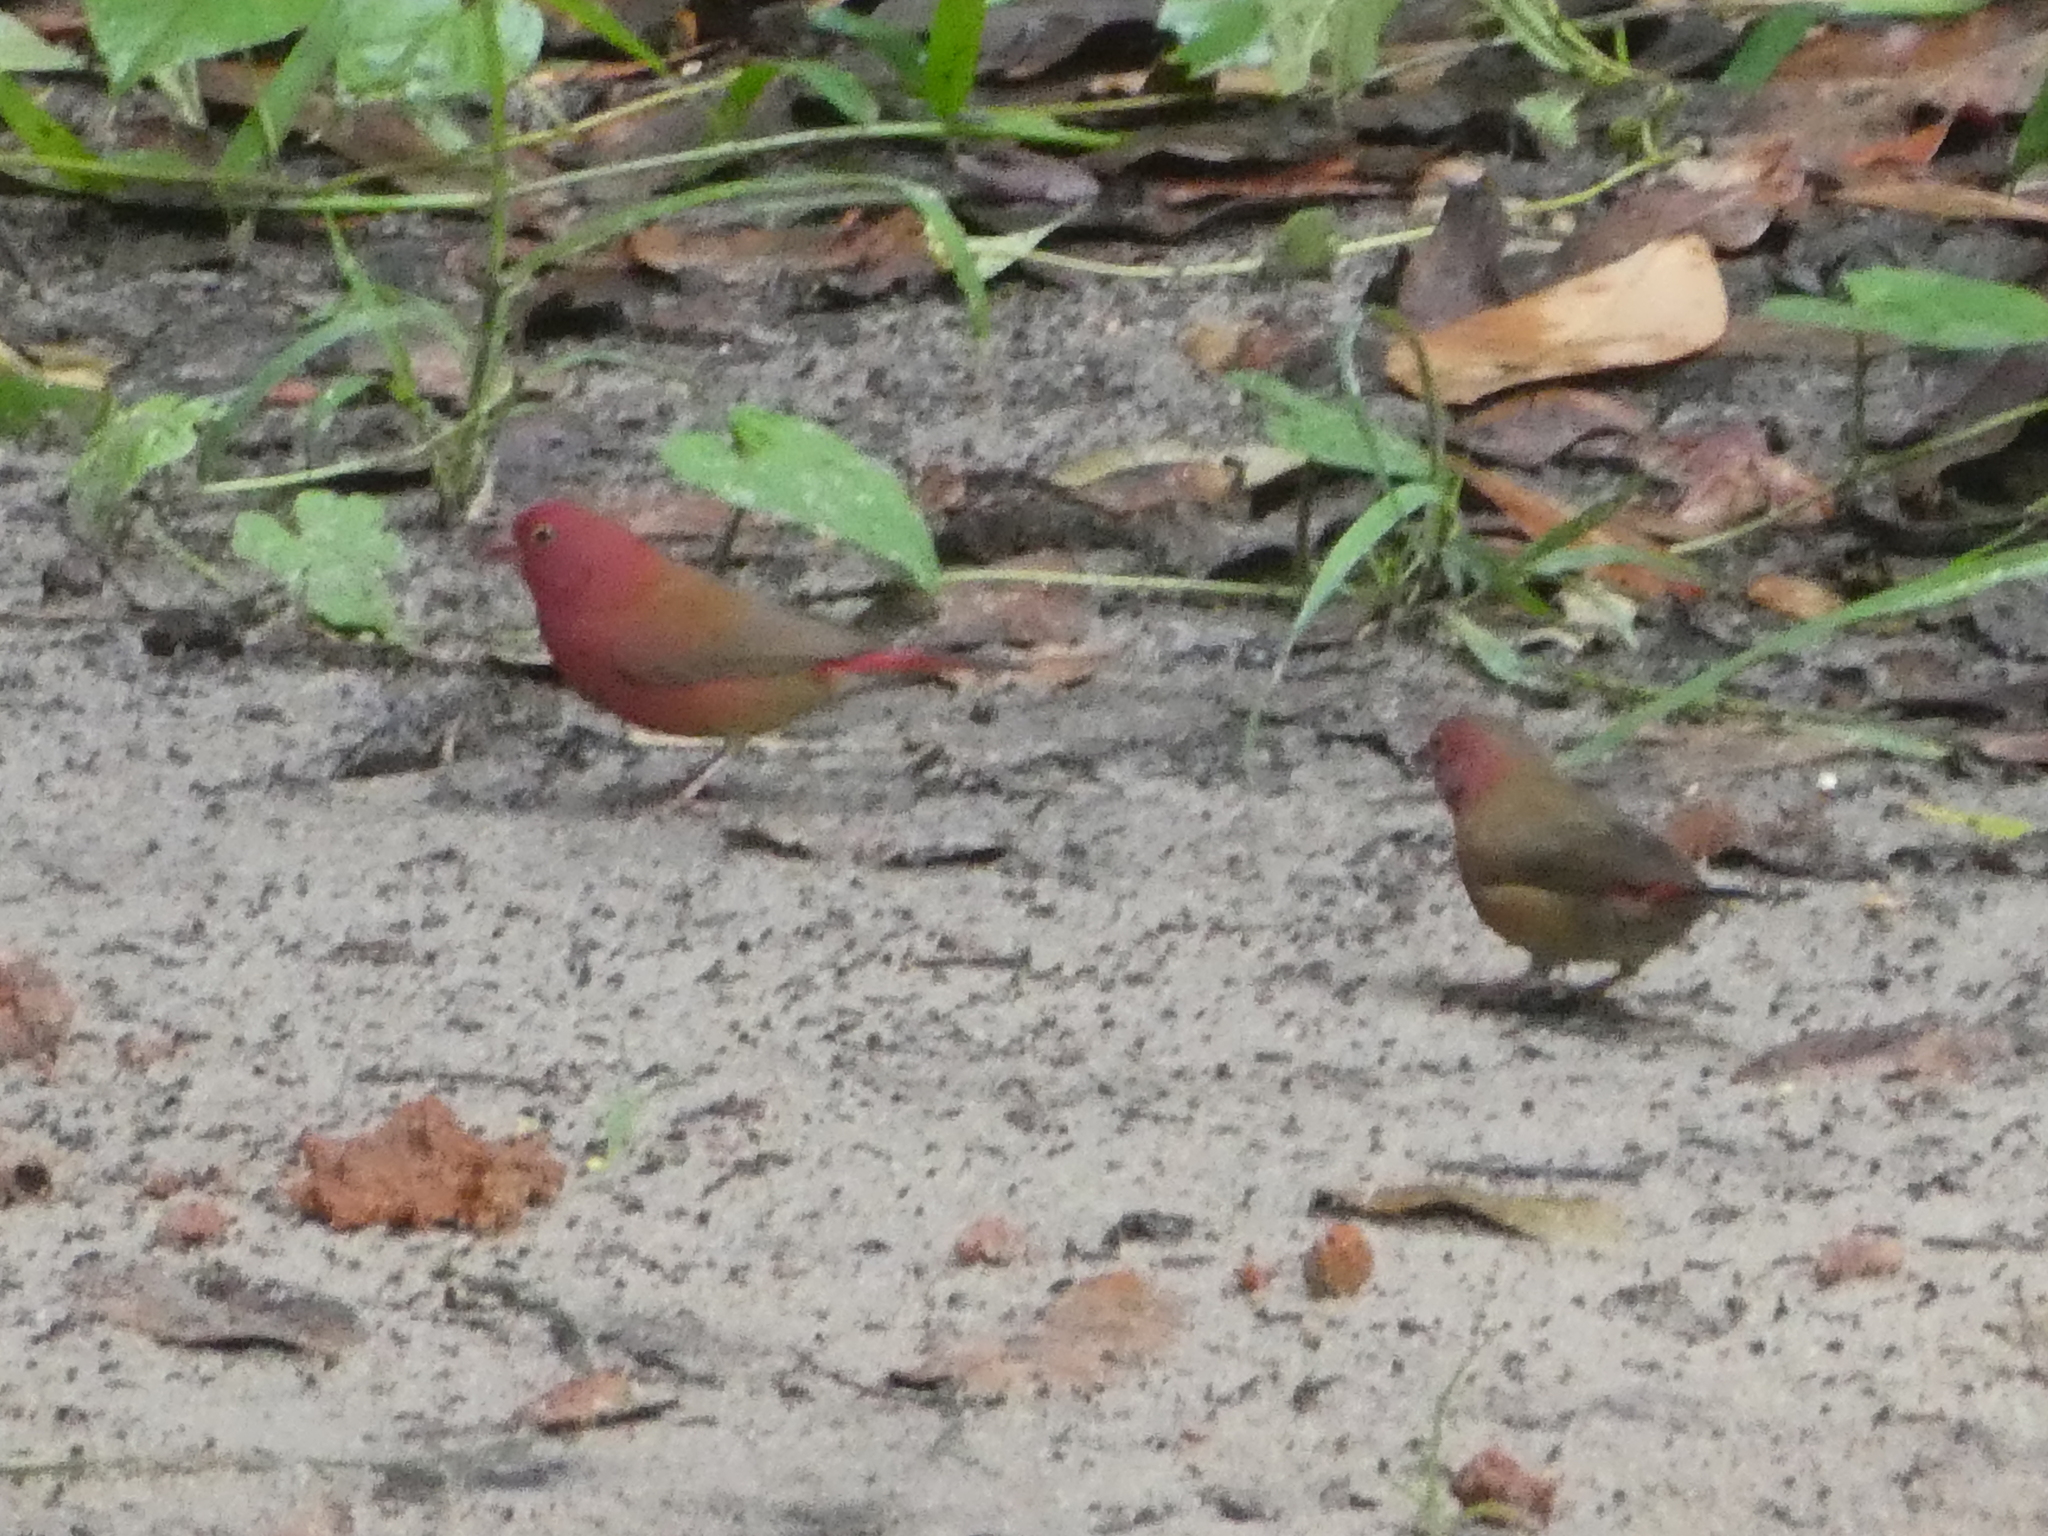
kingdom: Animalia
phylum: Chordata
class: Aves
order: Passeriformes
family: Estrildidae
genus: Lagonosticta
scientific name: Lagonosticta senegala
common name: Red-billed firefinch
